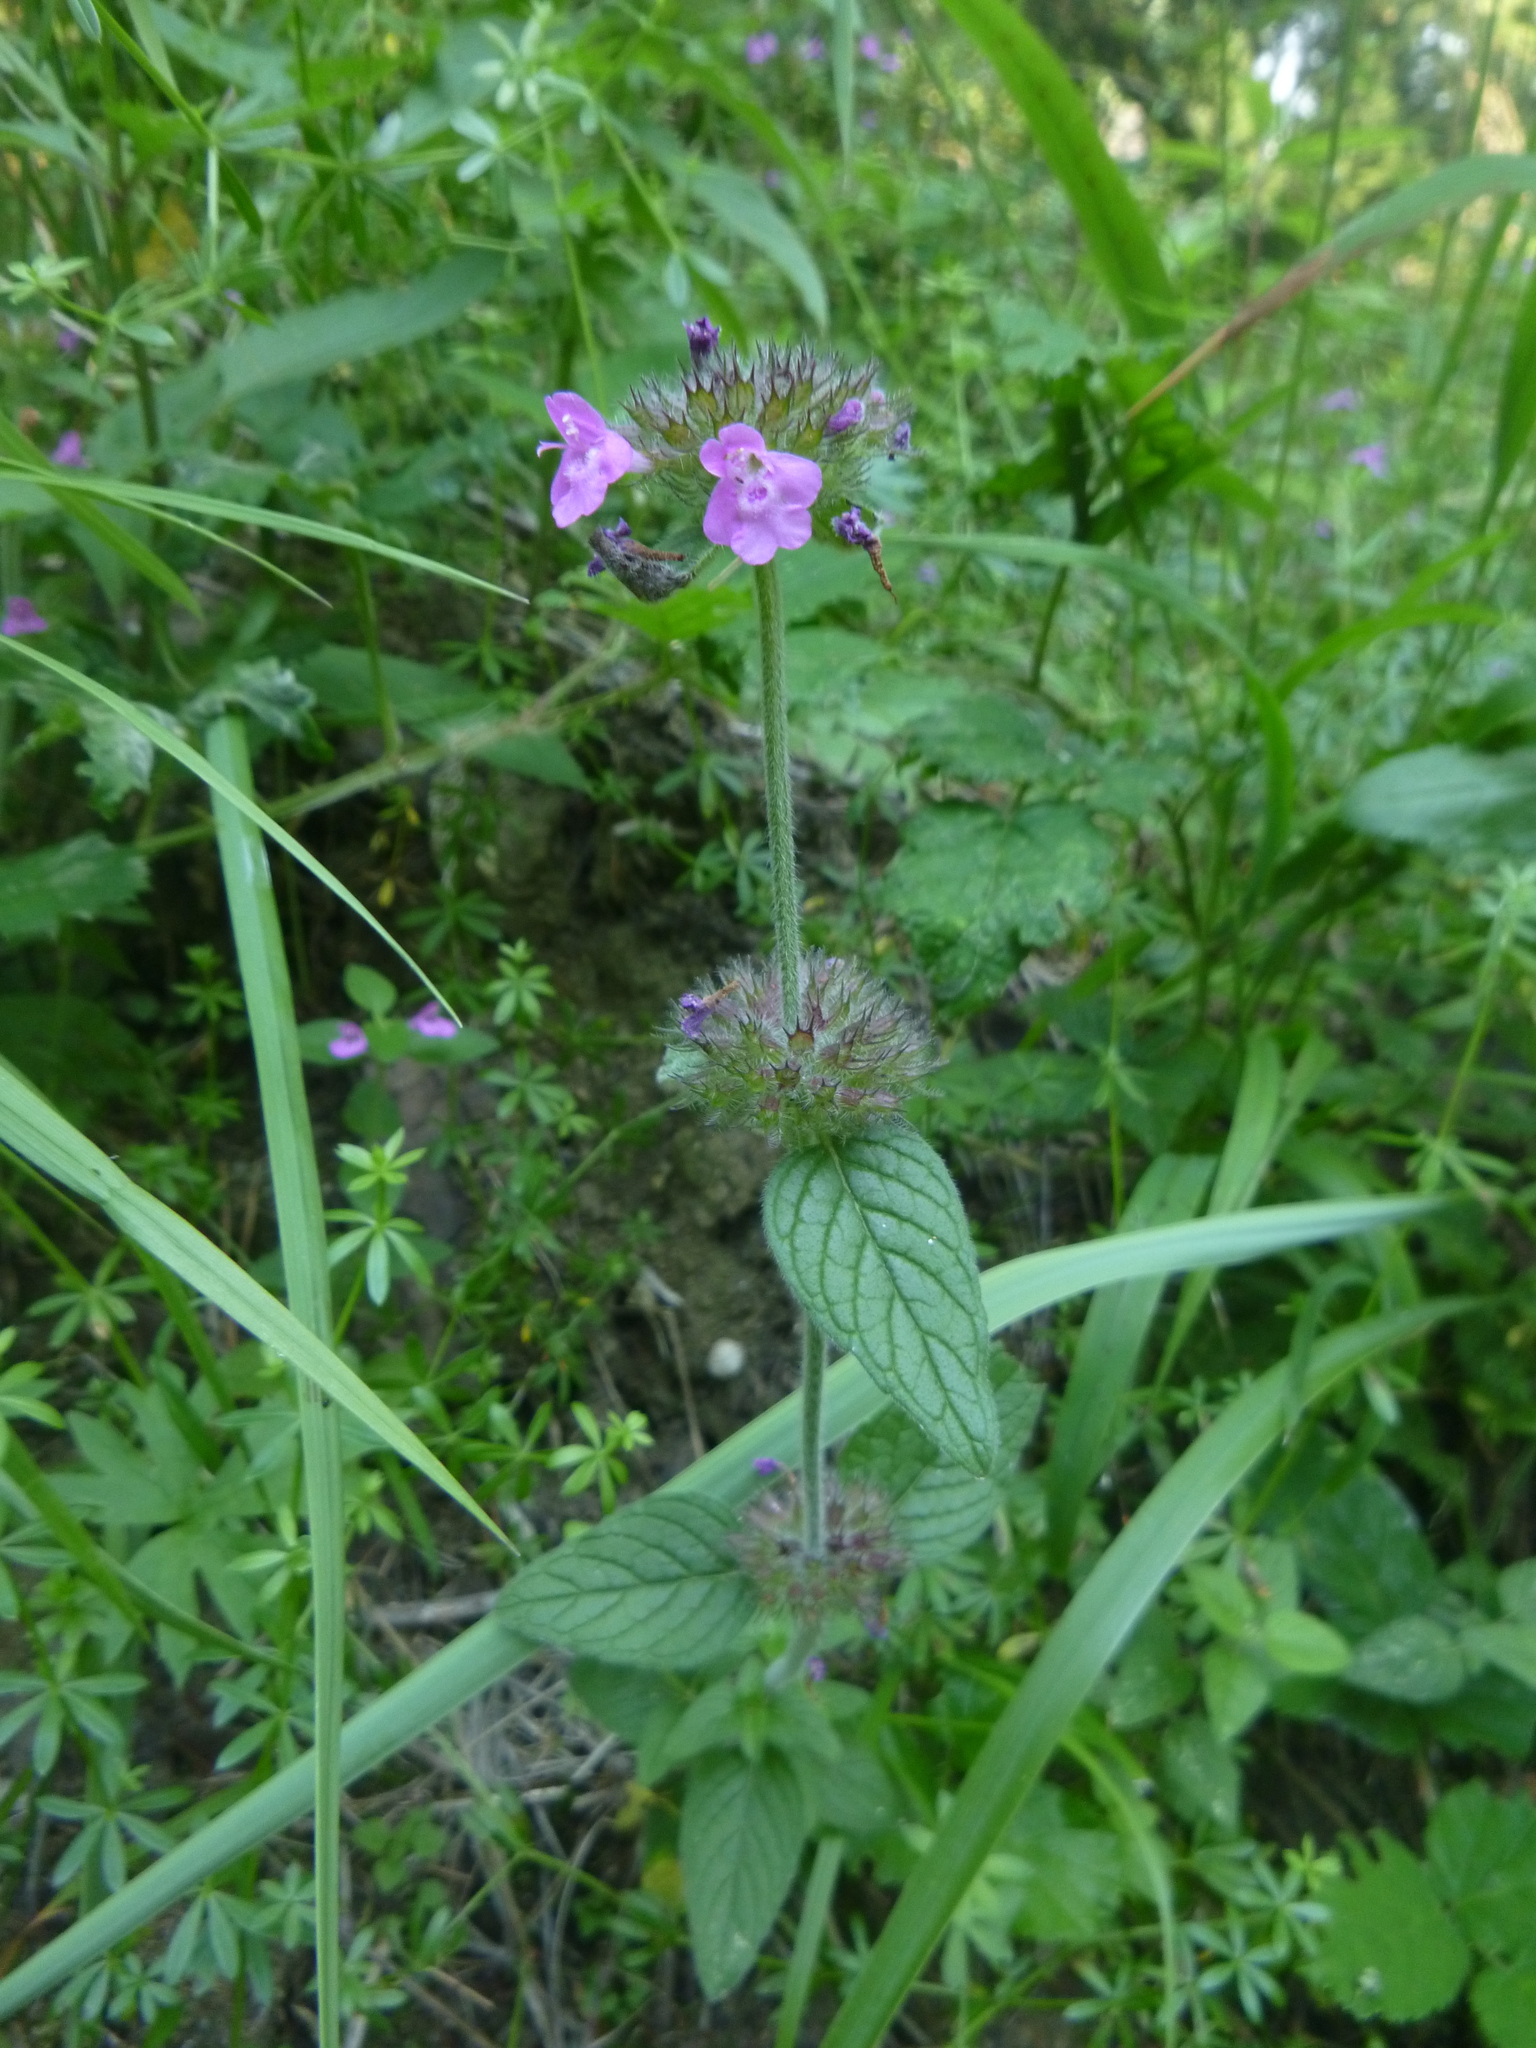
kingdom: Plantae
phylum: Tracheophyta
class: Magnoliopsida
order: Lamiales
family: Lamiaceae
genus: Clinopodium
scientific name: Clinopodium vulgare
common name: Wild basil
